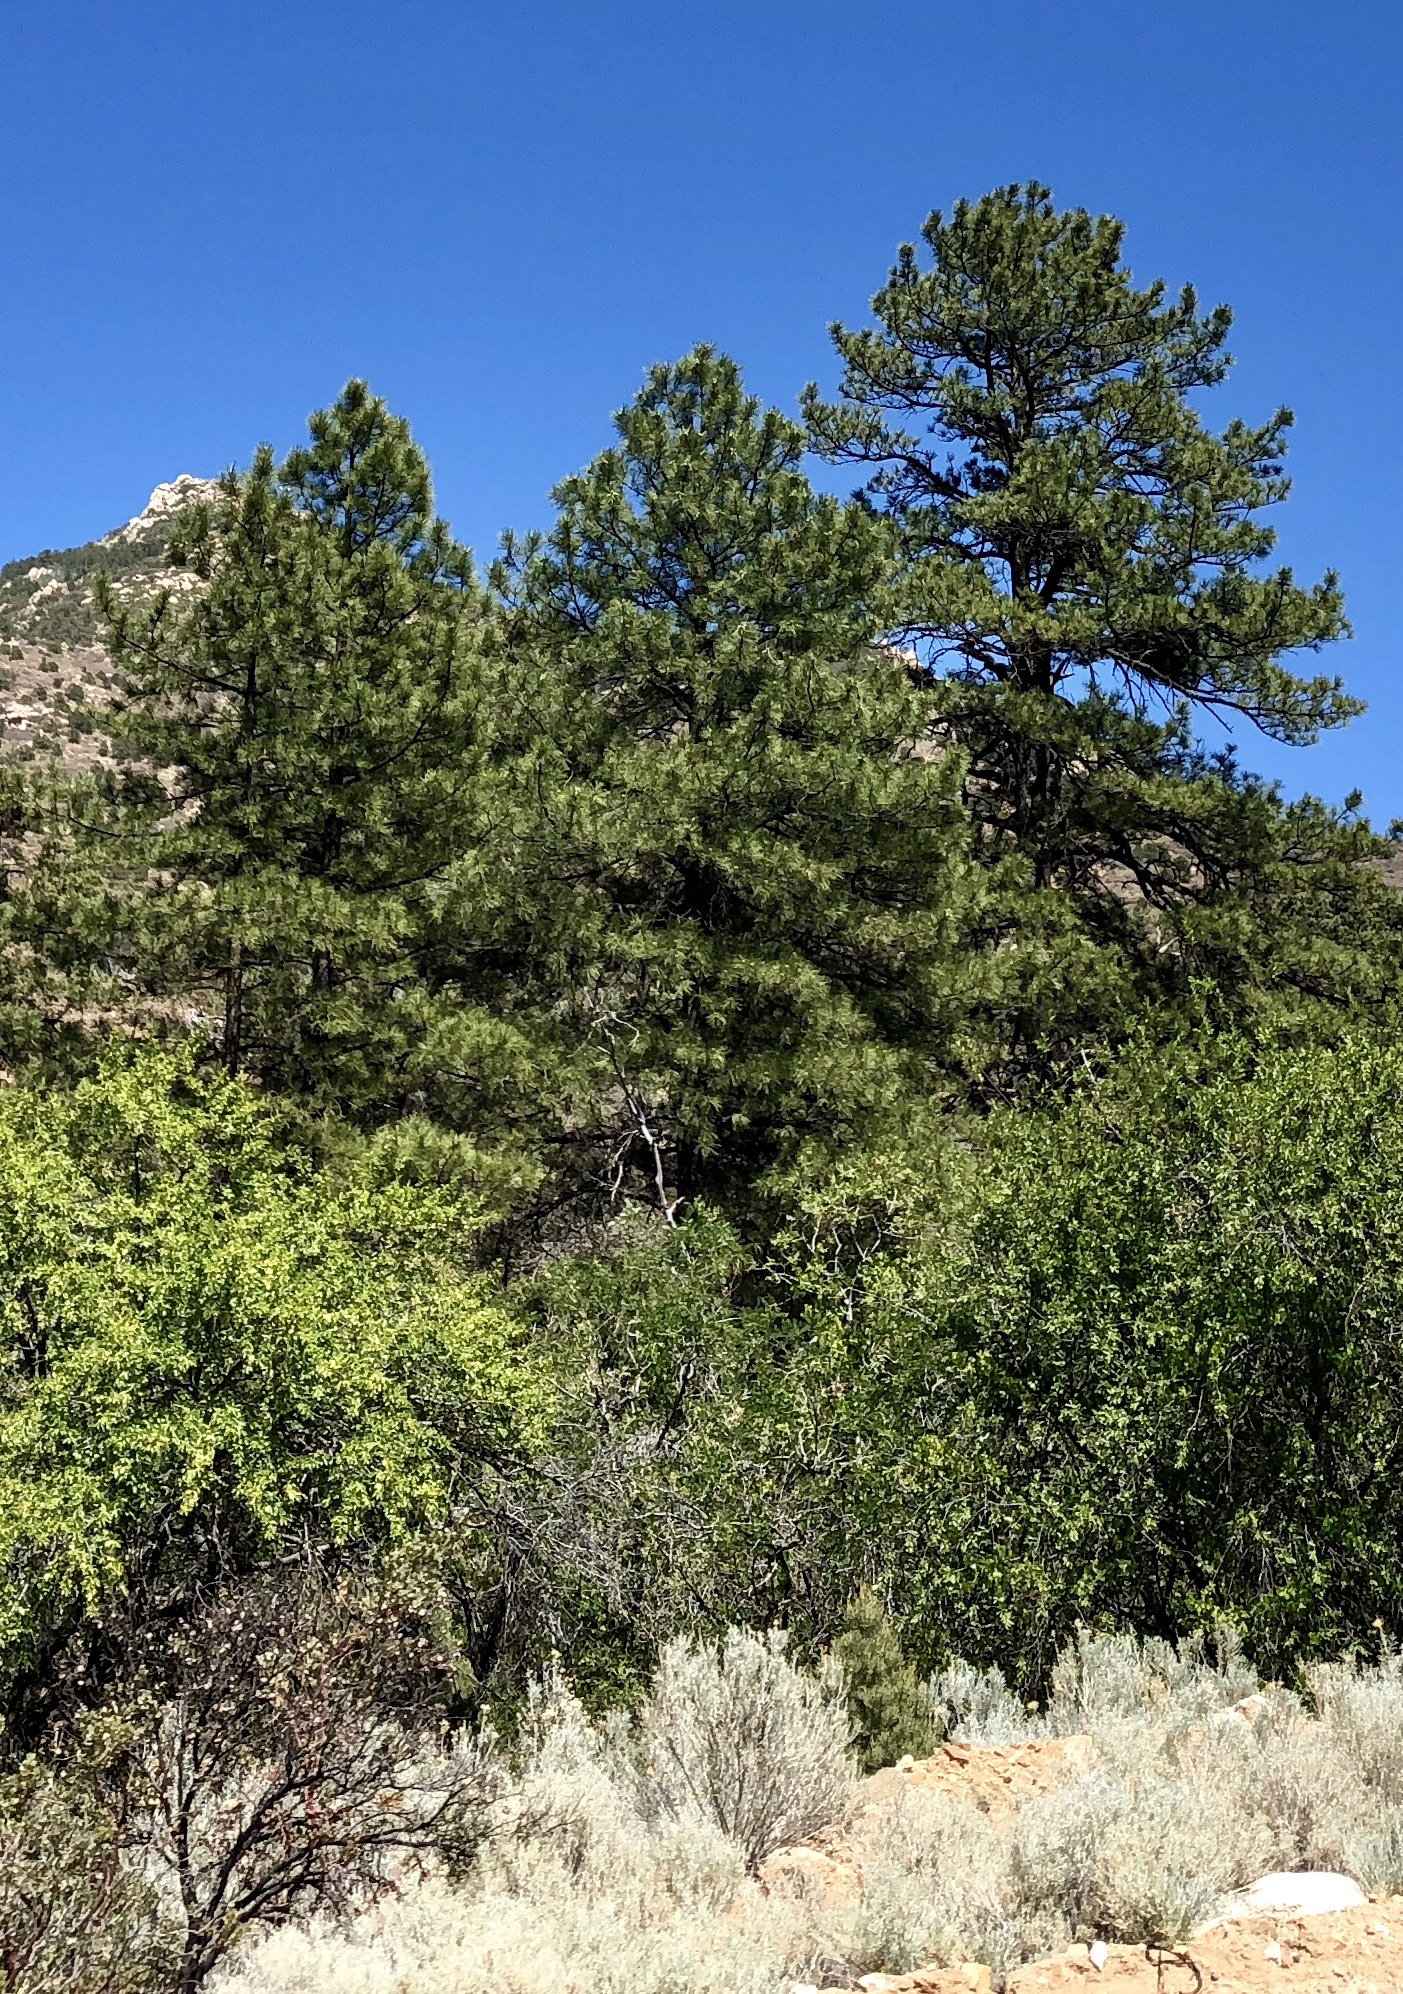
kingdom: Plantae
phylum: Tracheophyta
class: Pinopsida
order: Pinales
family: Pinaceae
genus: Pinus
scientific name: Pinus ponderosa
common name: Western yellow-pine
